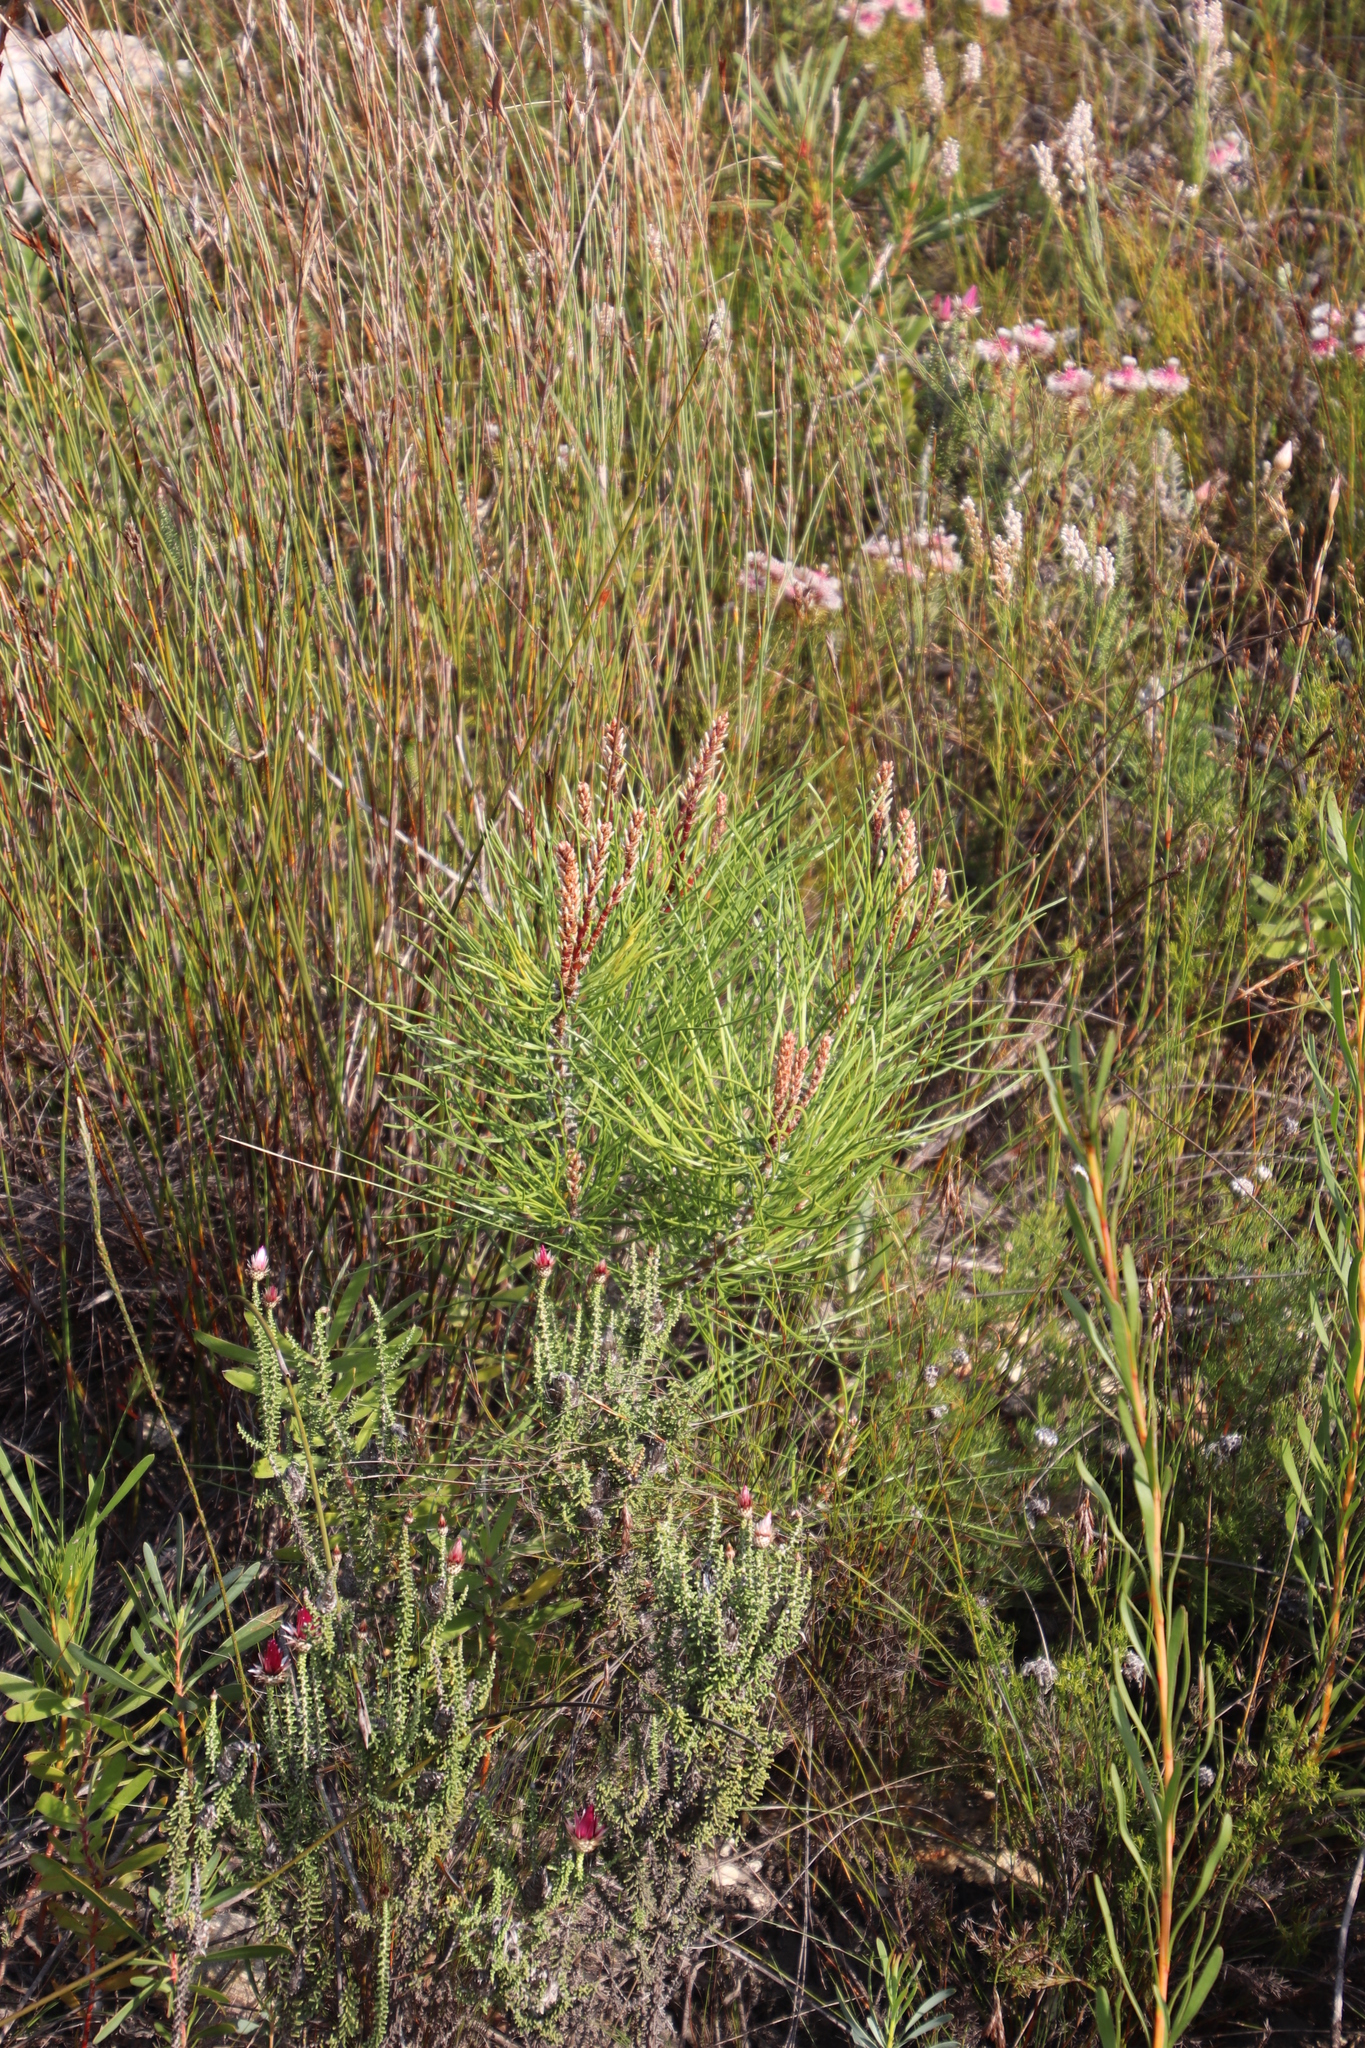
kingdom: Plantae
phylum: Tracheophyta
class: Pinopsida
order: Pinales
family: Pinaceae
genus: Pinus
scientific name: Pinus pinaster
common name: Maritime pine
